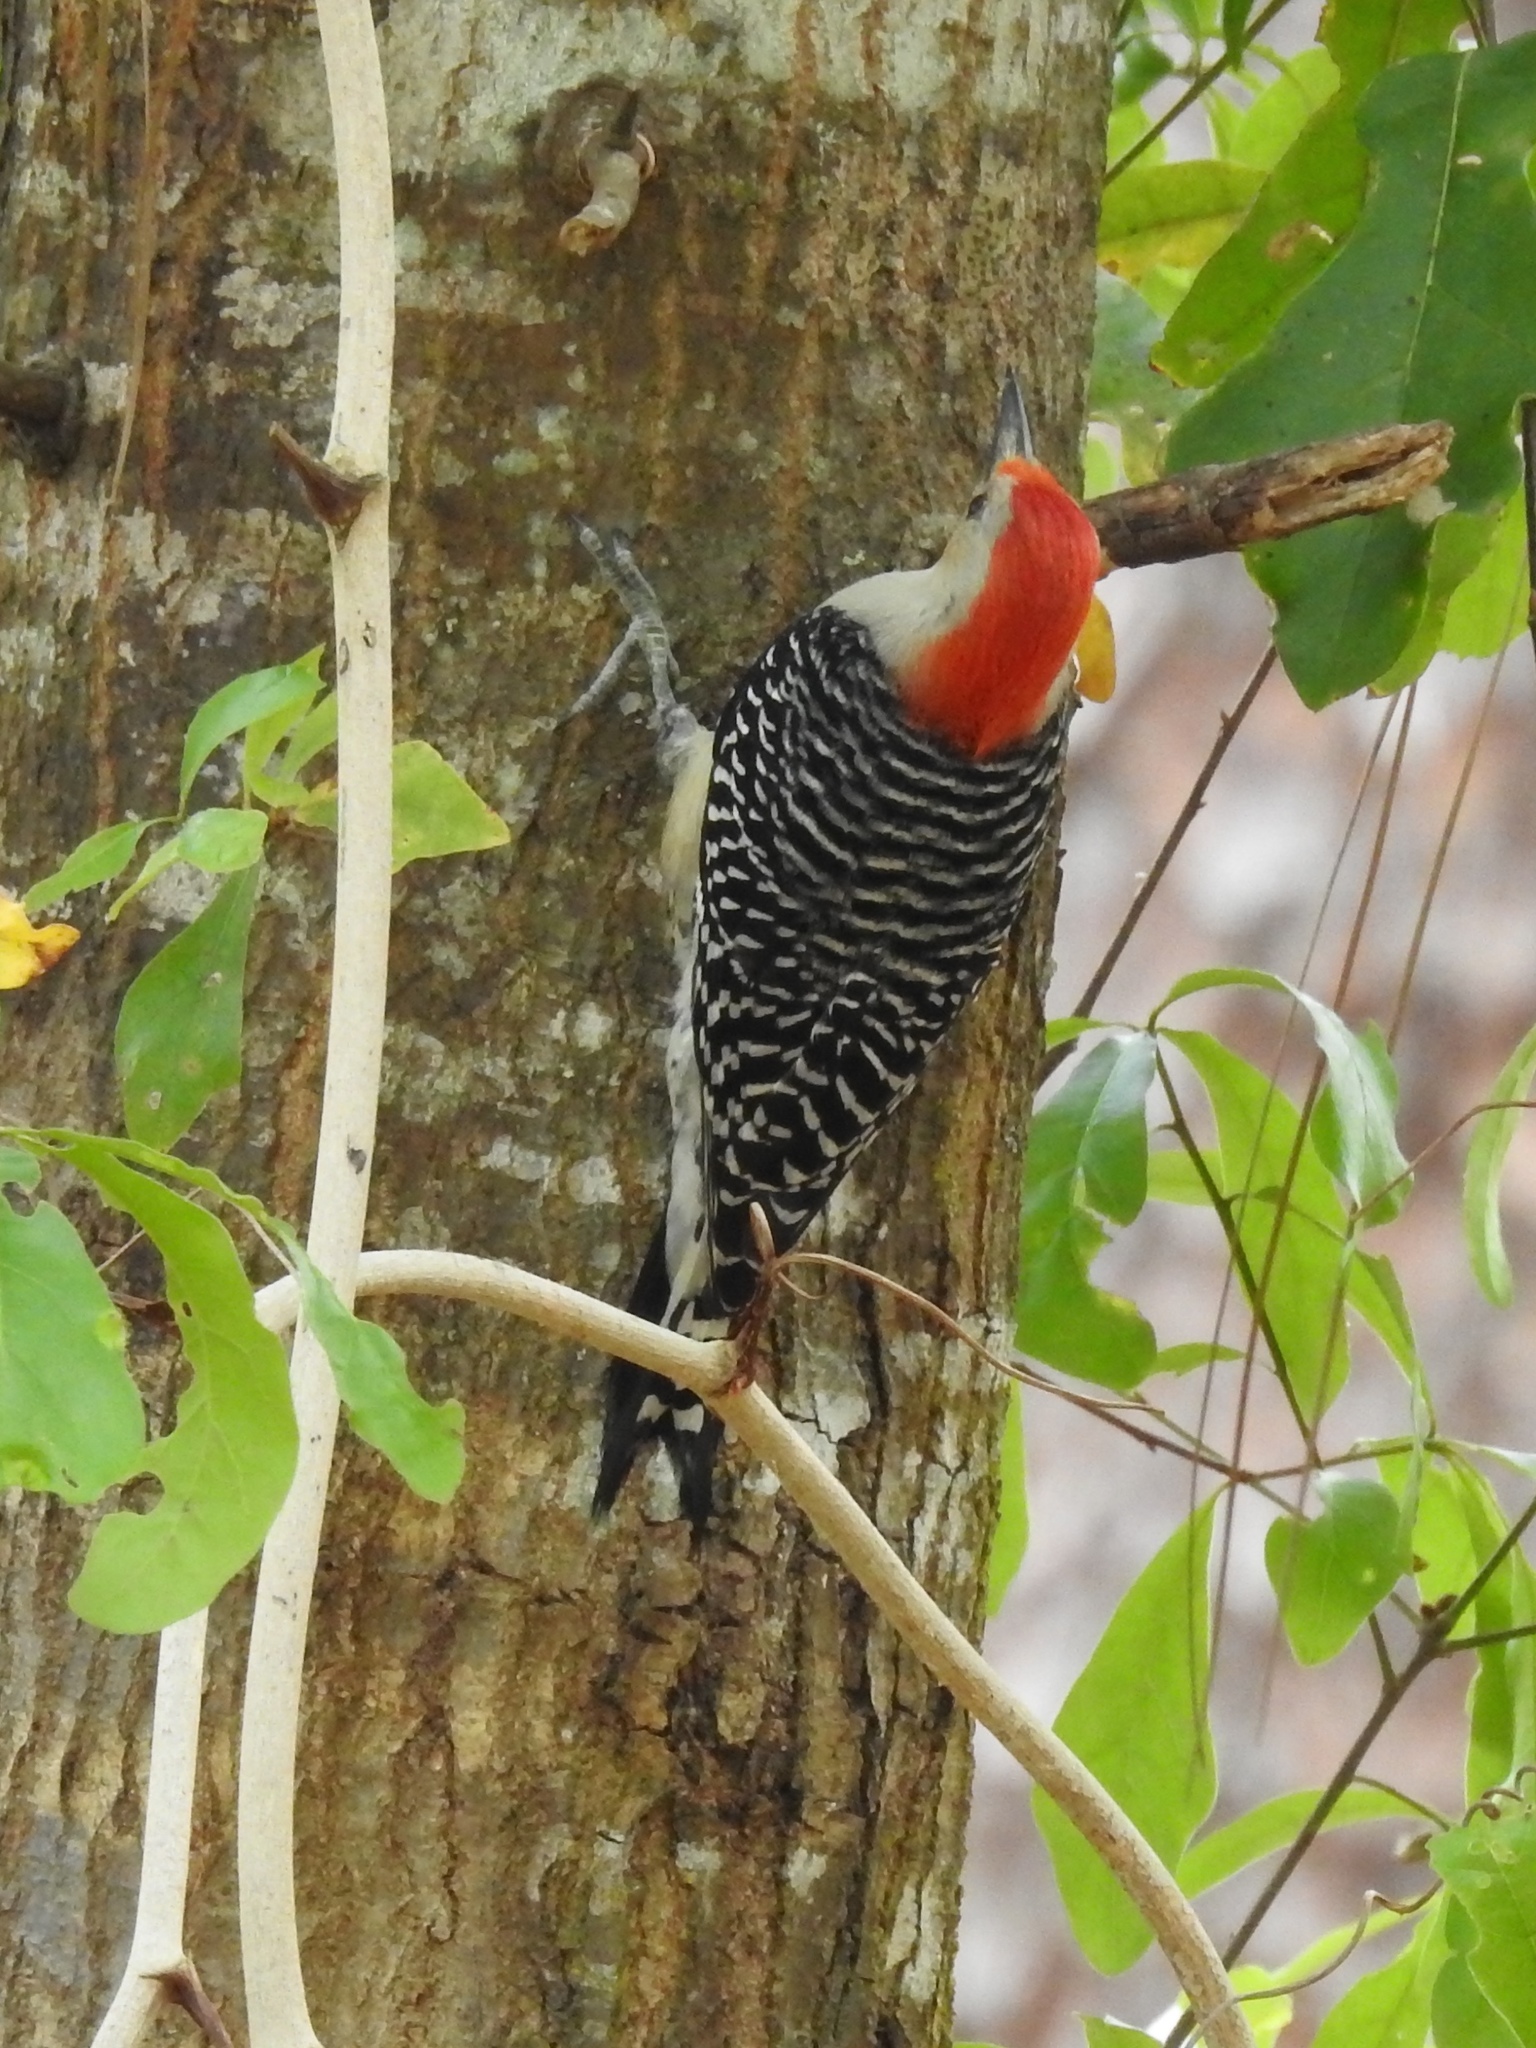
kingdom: Animalia
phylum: Chordata
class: Aves
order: Piciformes
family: Picidae
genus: Melanerpes
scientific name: Melanerpes carolinus
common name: Red-bellied woodpecker
